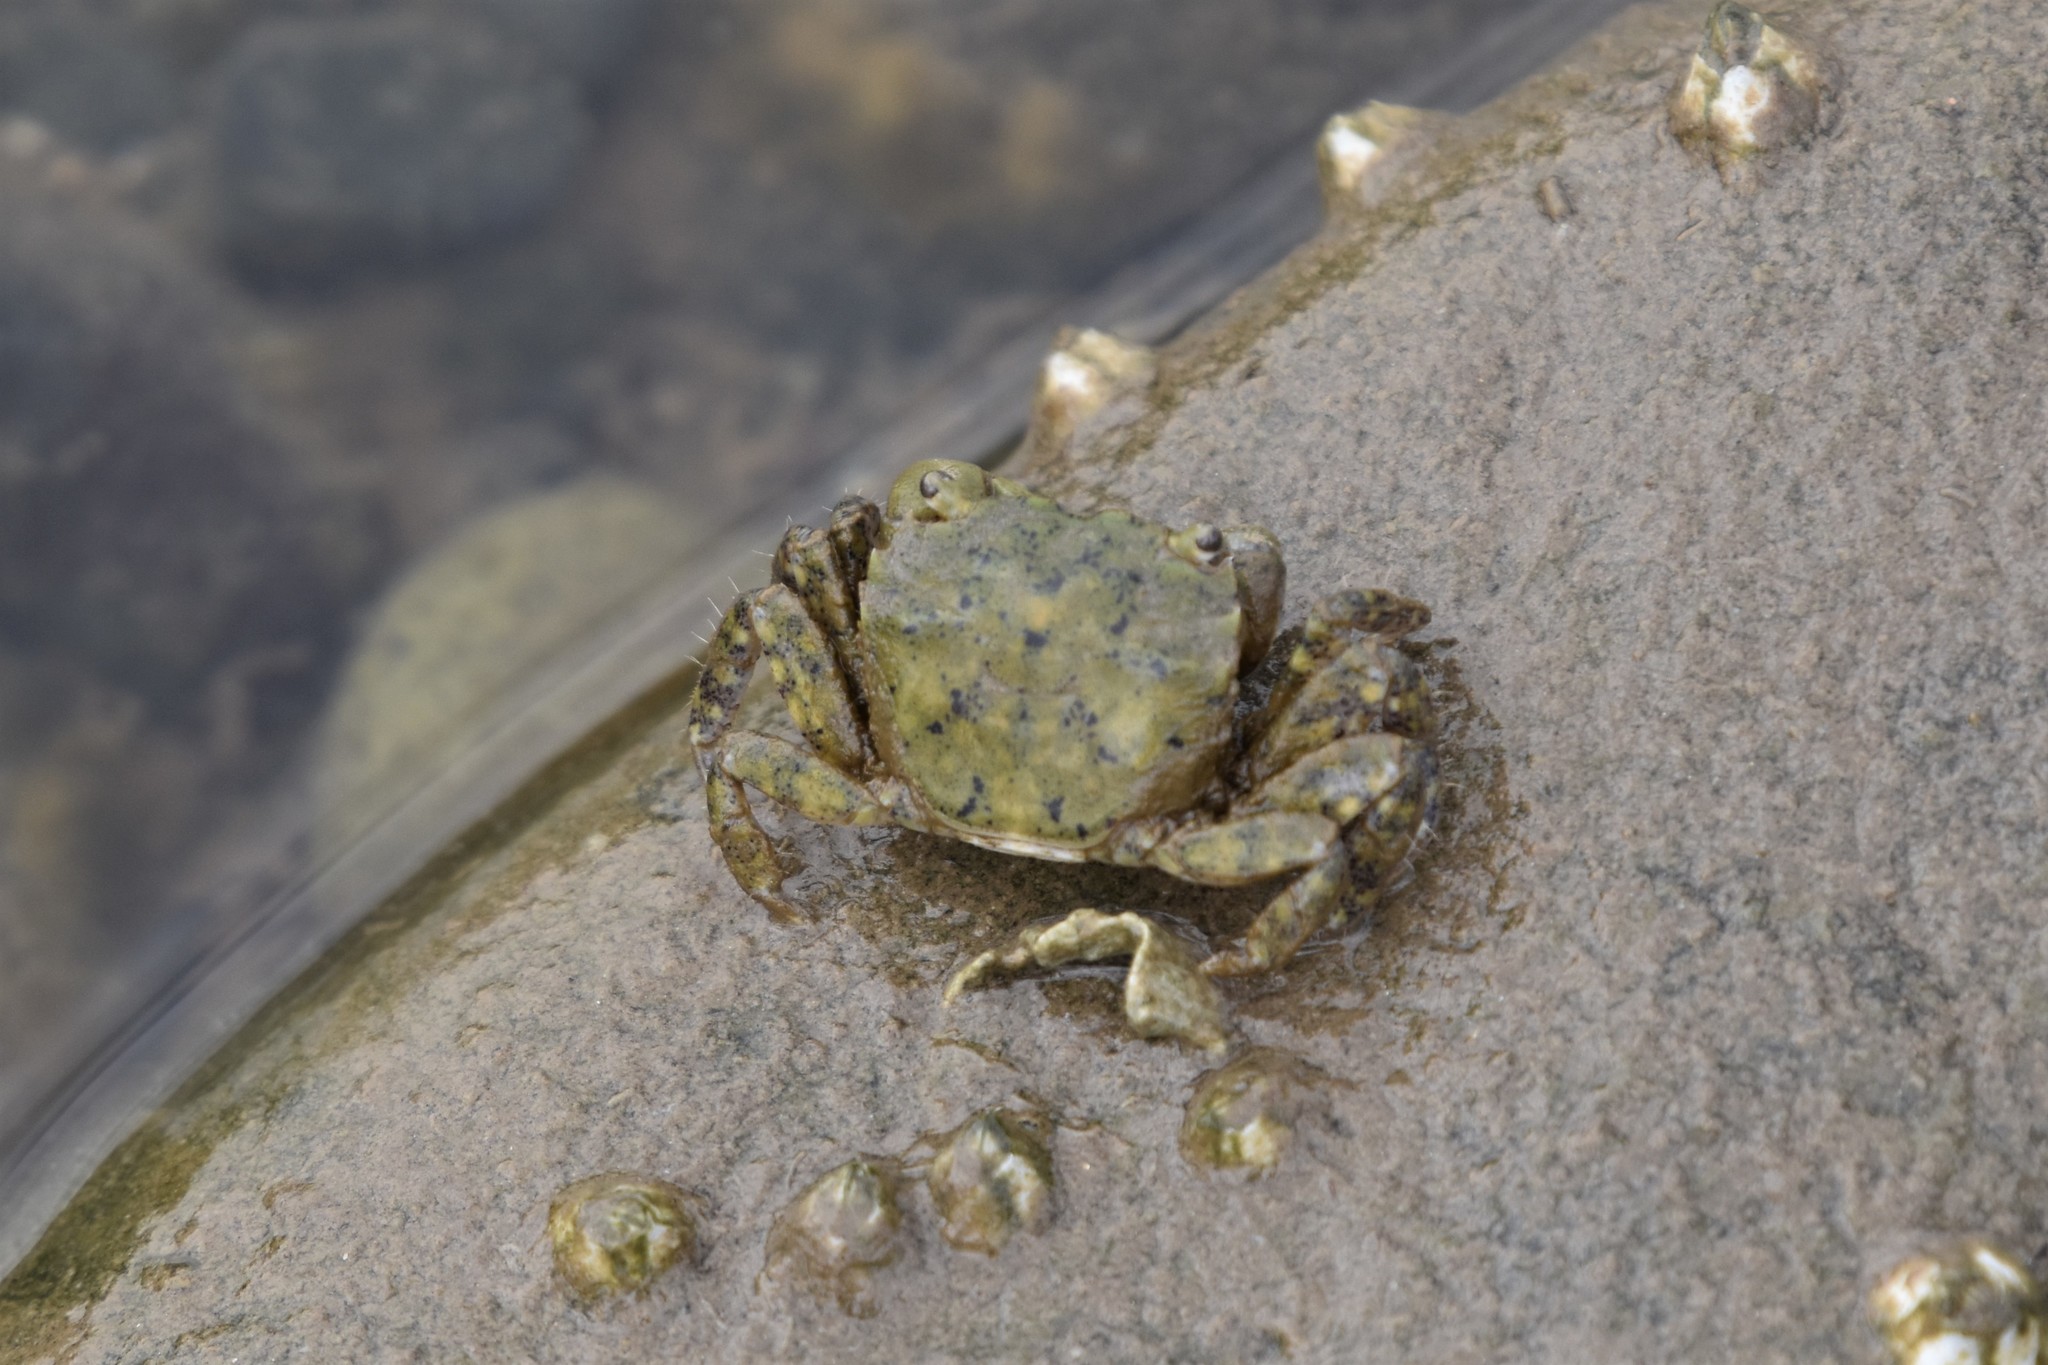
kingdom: Animalia
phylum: Arthropoda
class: Malacostraca
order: Decapoda
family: Varunidae
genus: Hemigrapsus
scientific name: Hemigrapsus oregonensis
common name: Yellow shore crab
